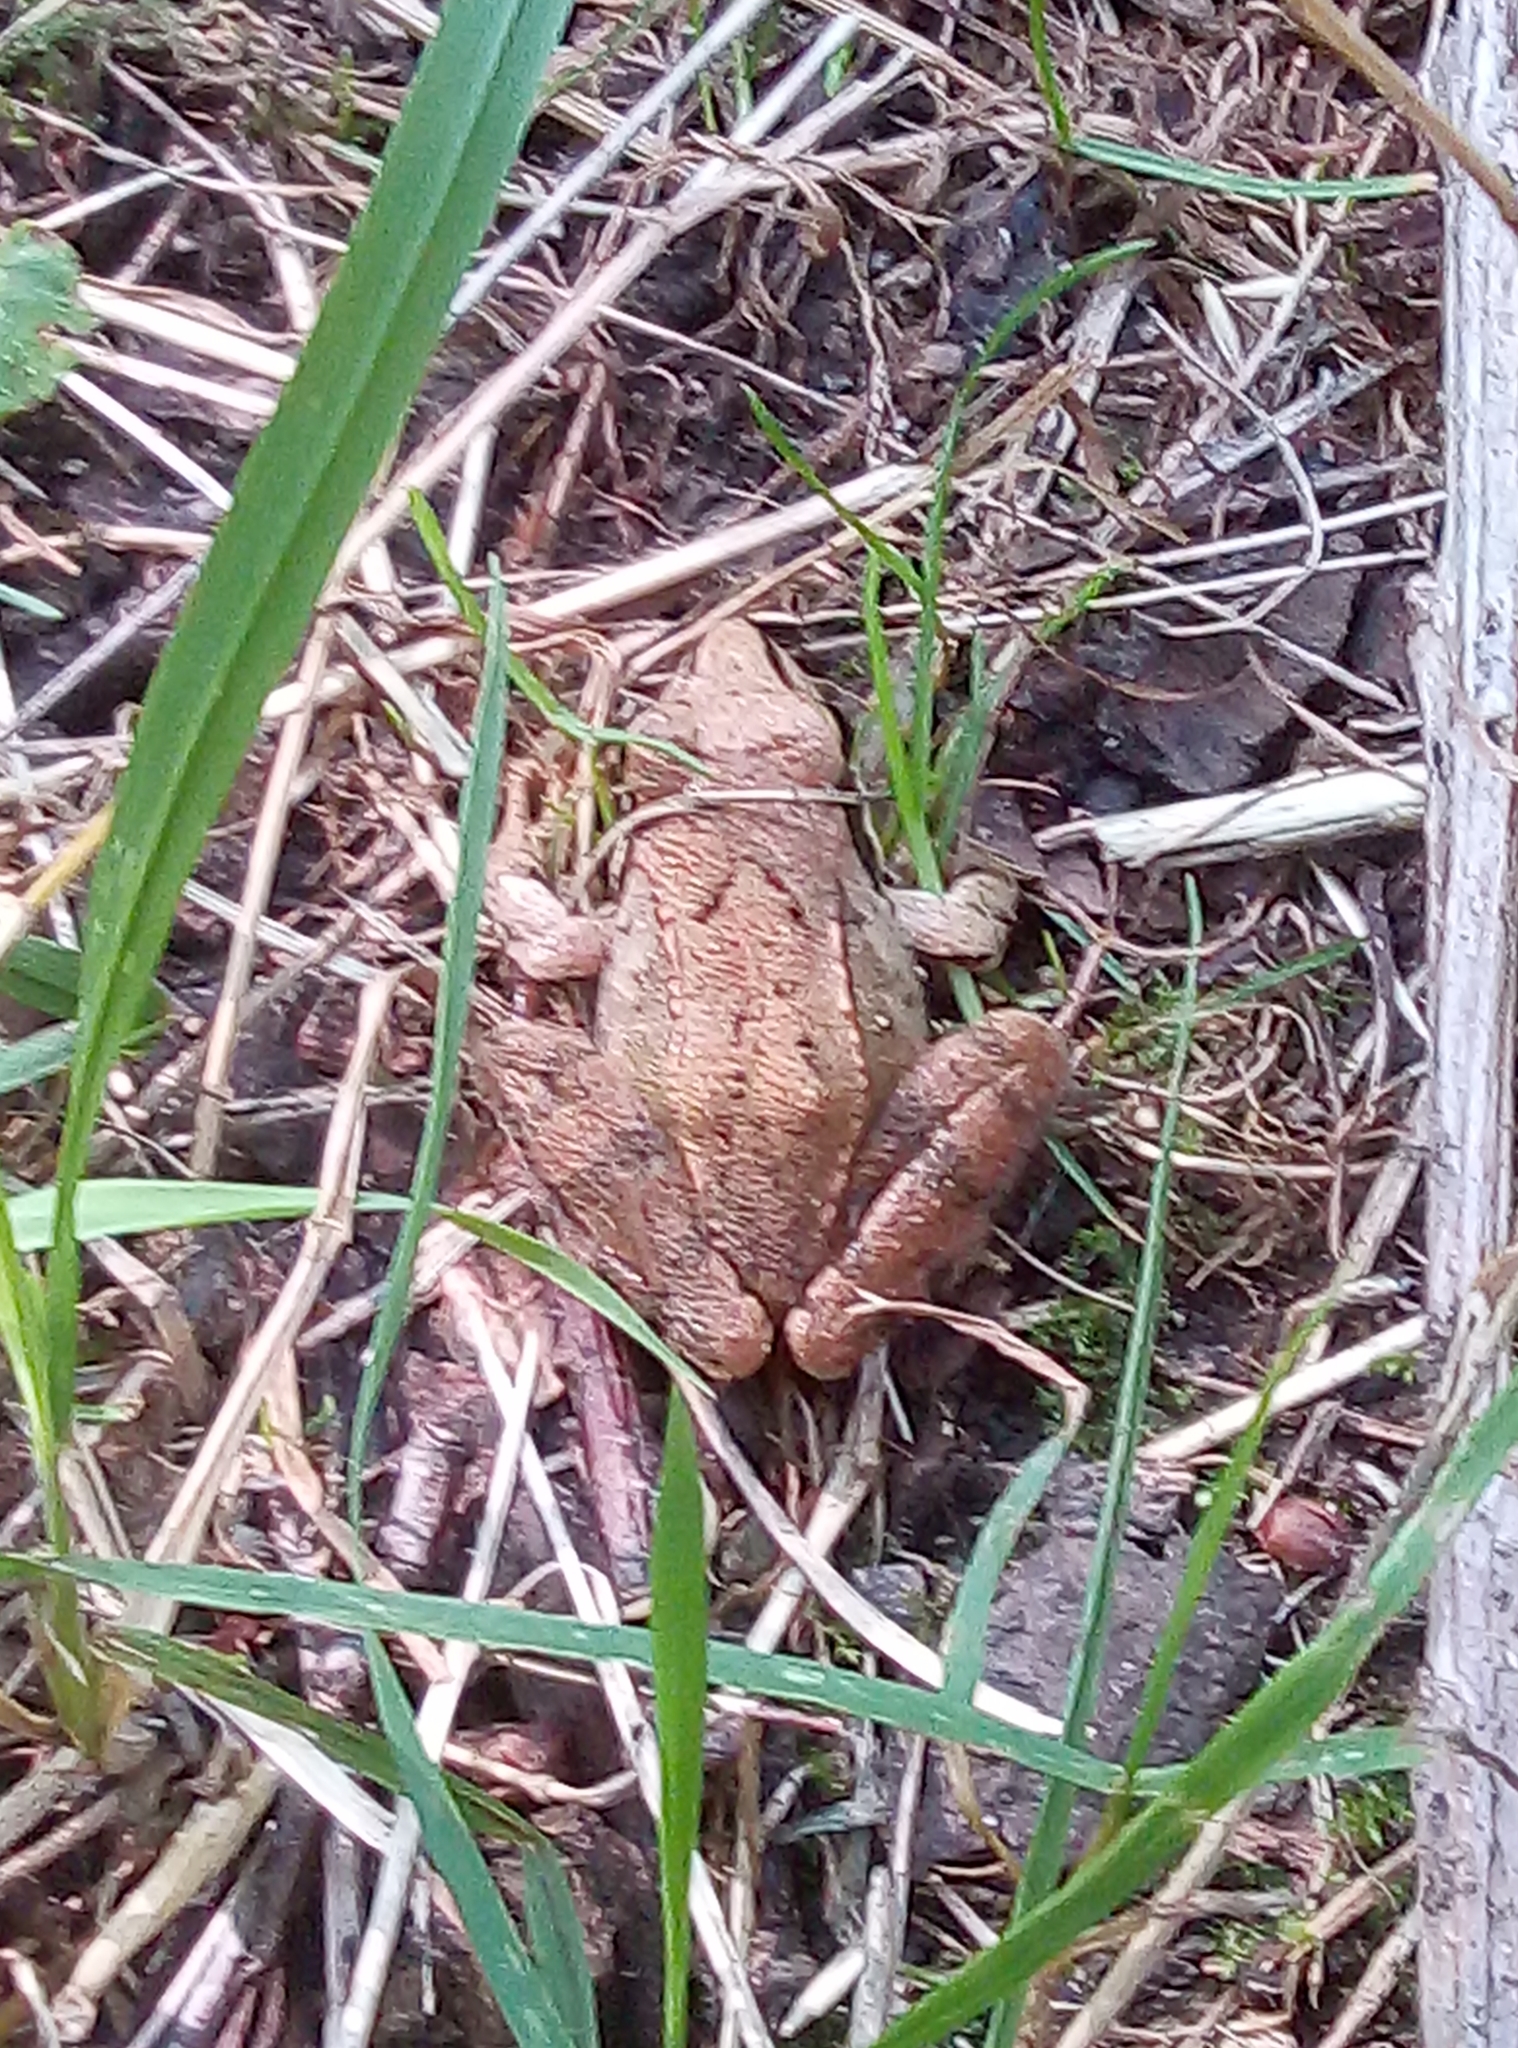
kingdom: Animalia
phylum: Chordata
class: Amphibia
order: Anura
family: Ranidae
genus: Rana
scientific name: Rana dalmatina
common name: Agile frog
